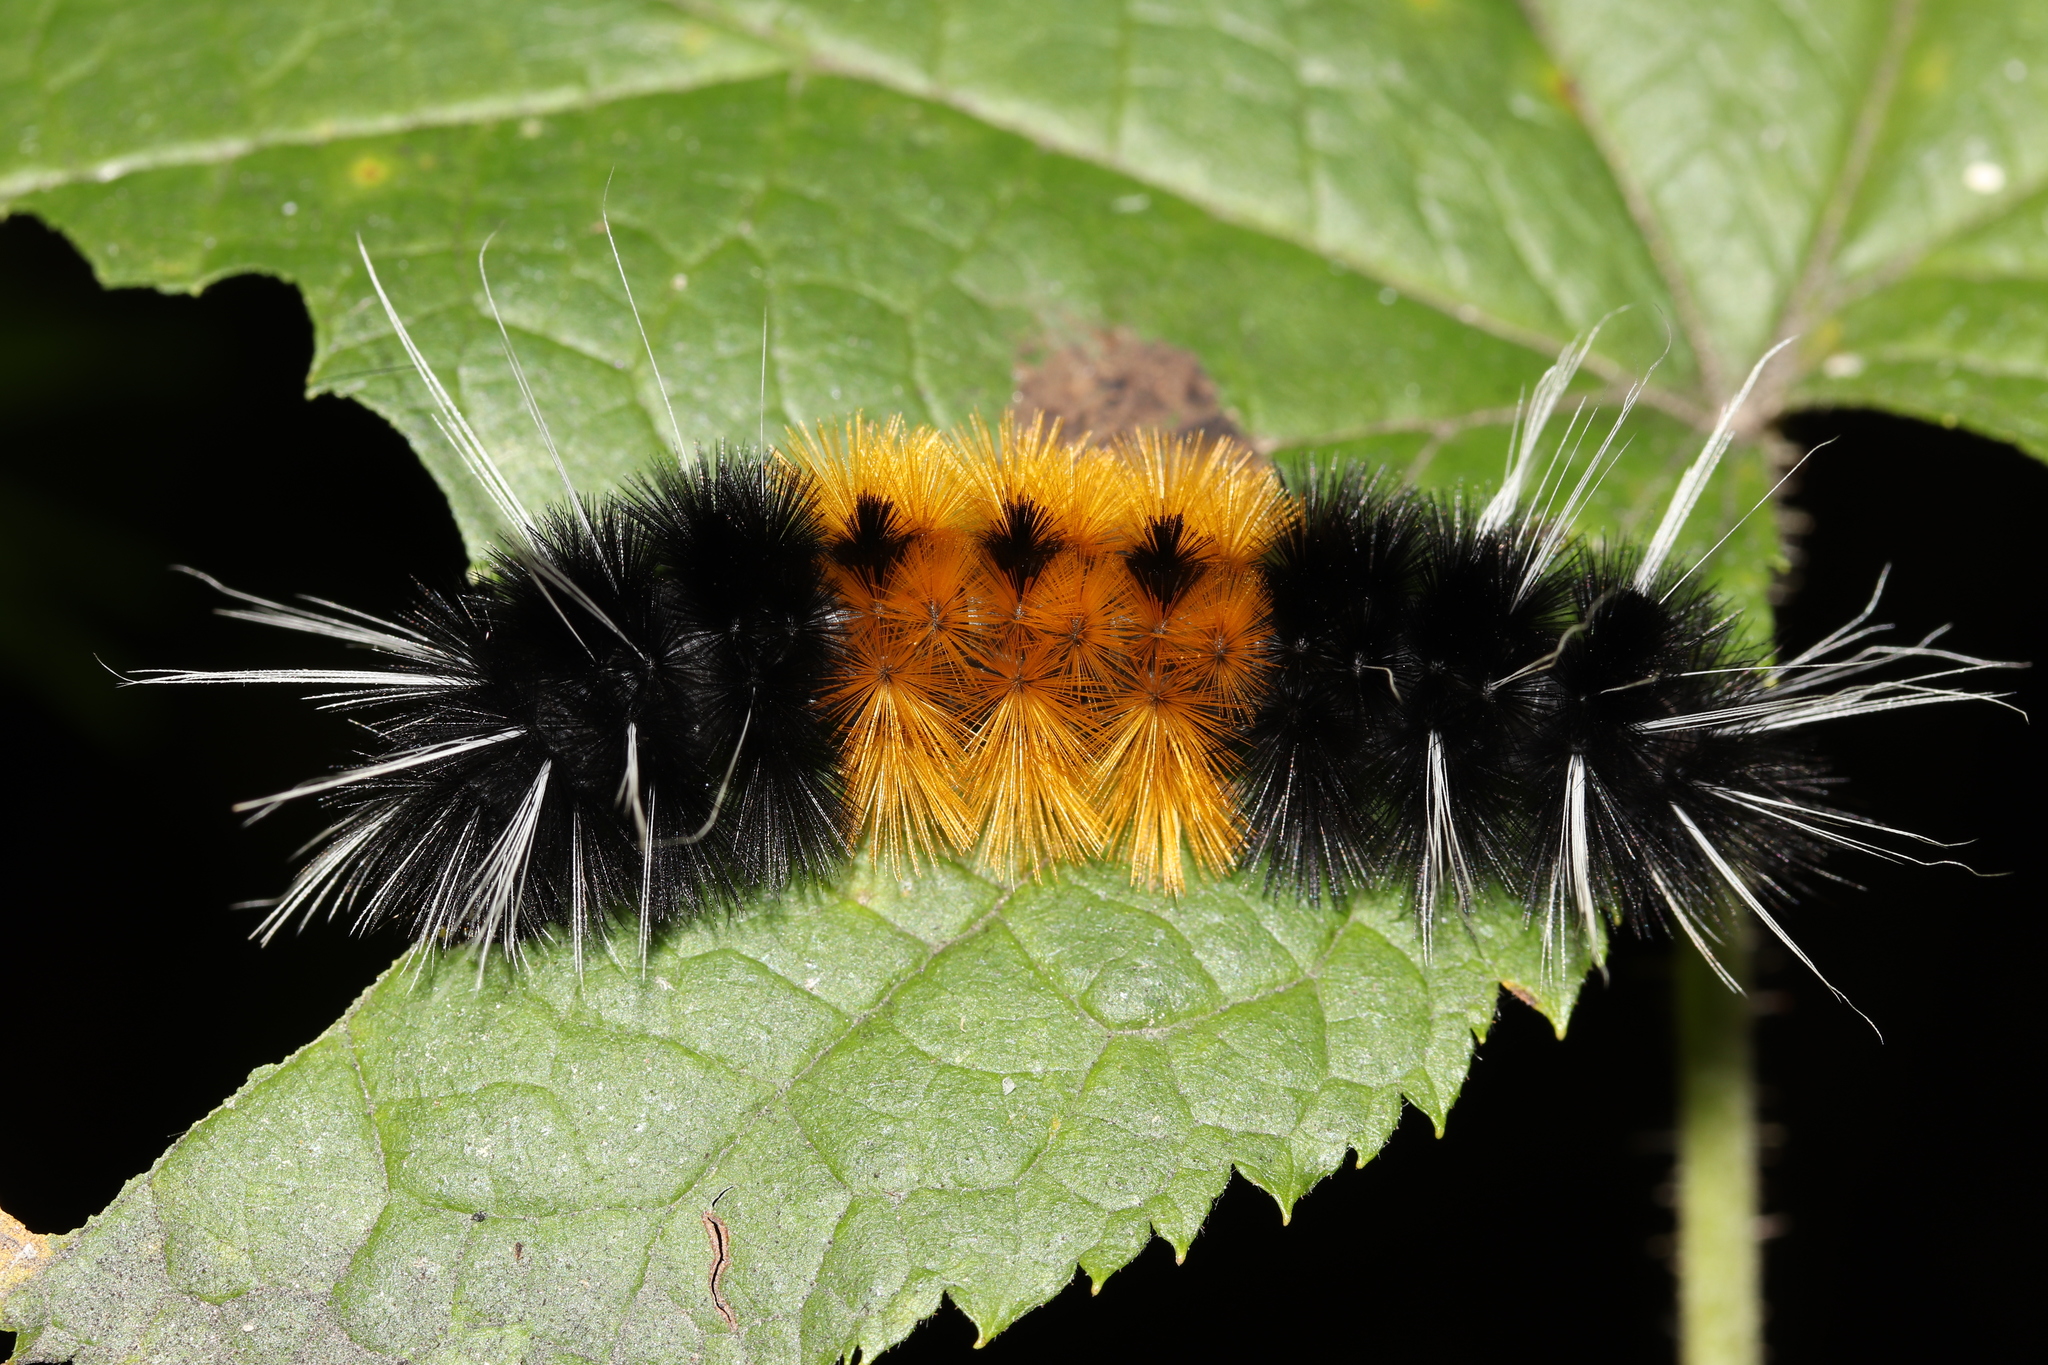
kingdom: Animalia
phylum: Arthropoda
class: Insecta
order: Lepidoptera
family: Erebidae
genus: Lophocampa
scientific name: Lophocampa maculata
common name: Spotted tussock moth
